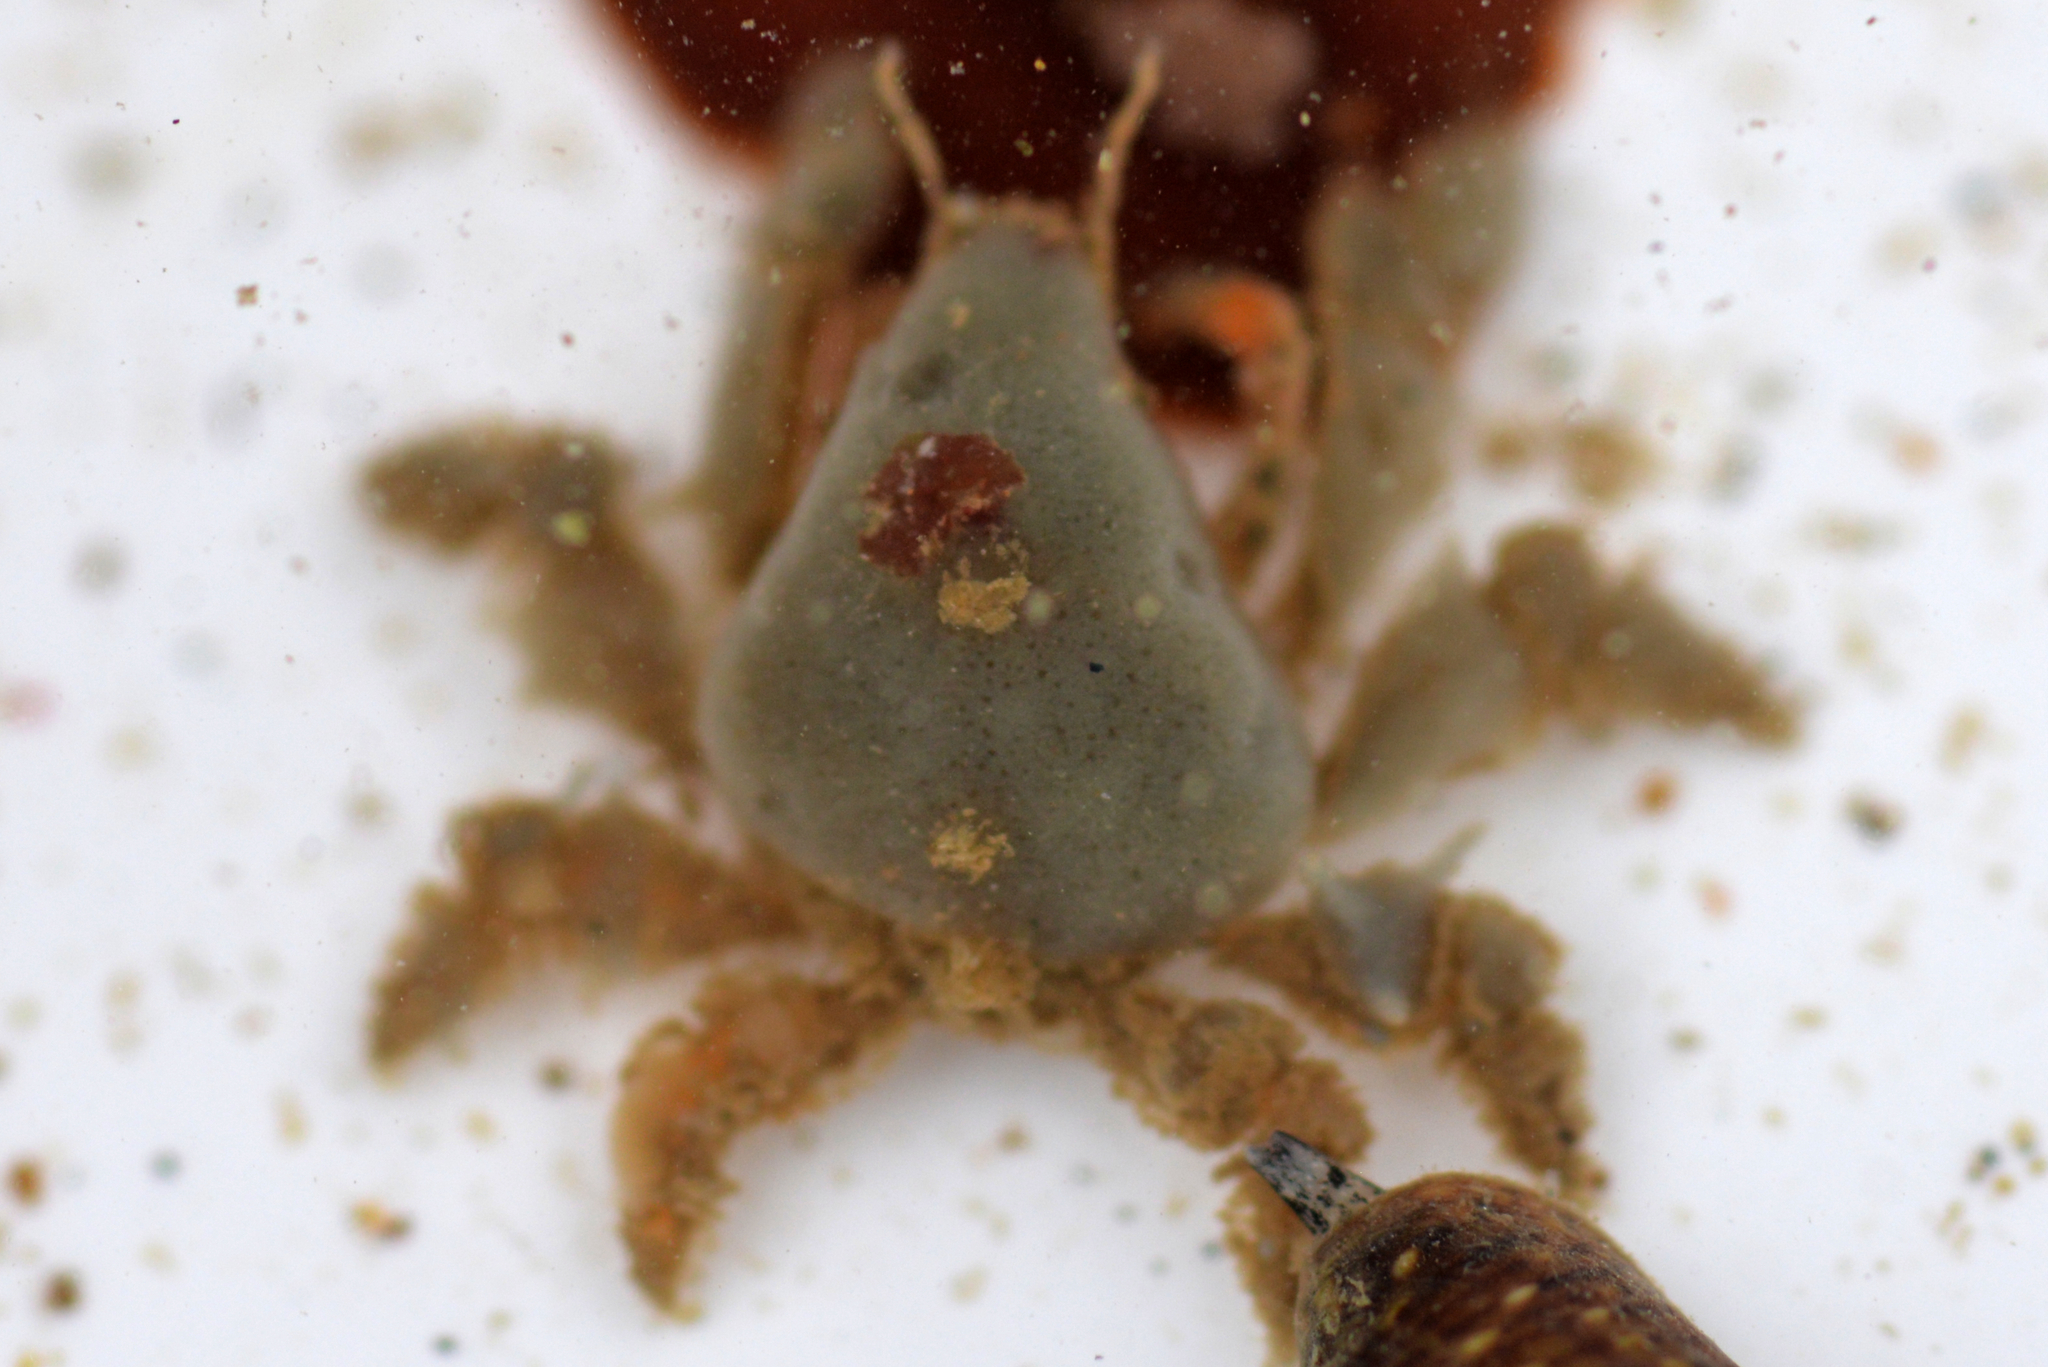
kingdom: Animalia
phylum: Arthropoda
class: Malacostraca
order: Decapoda
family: Epialtidae
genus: Pelia
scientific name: Pelia tumida
